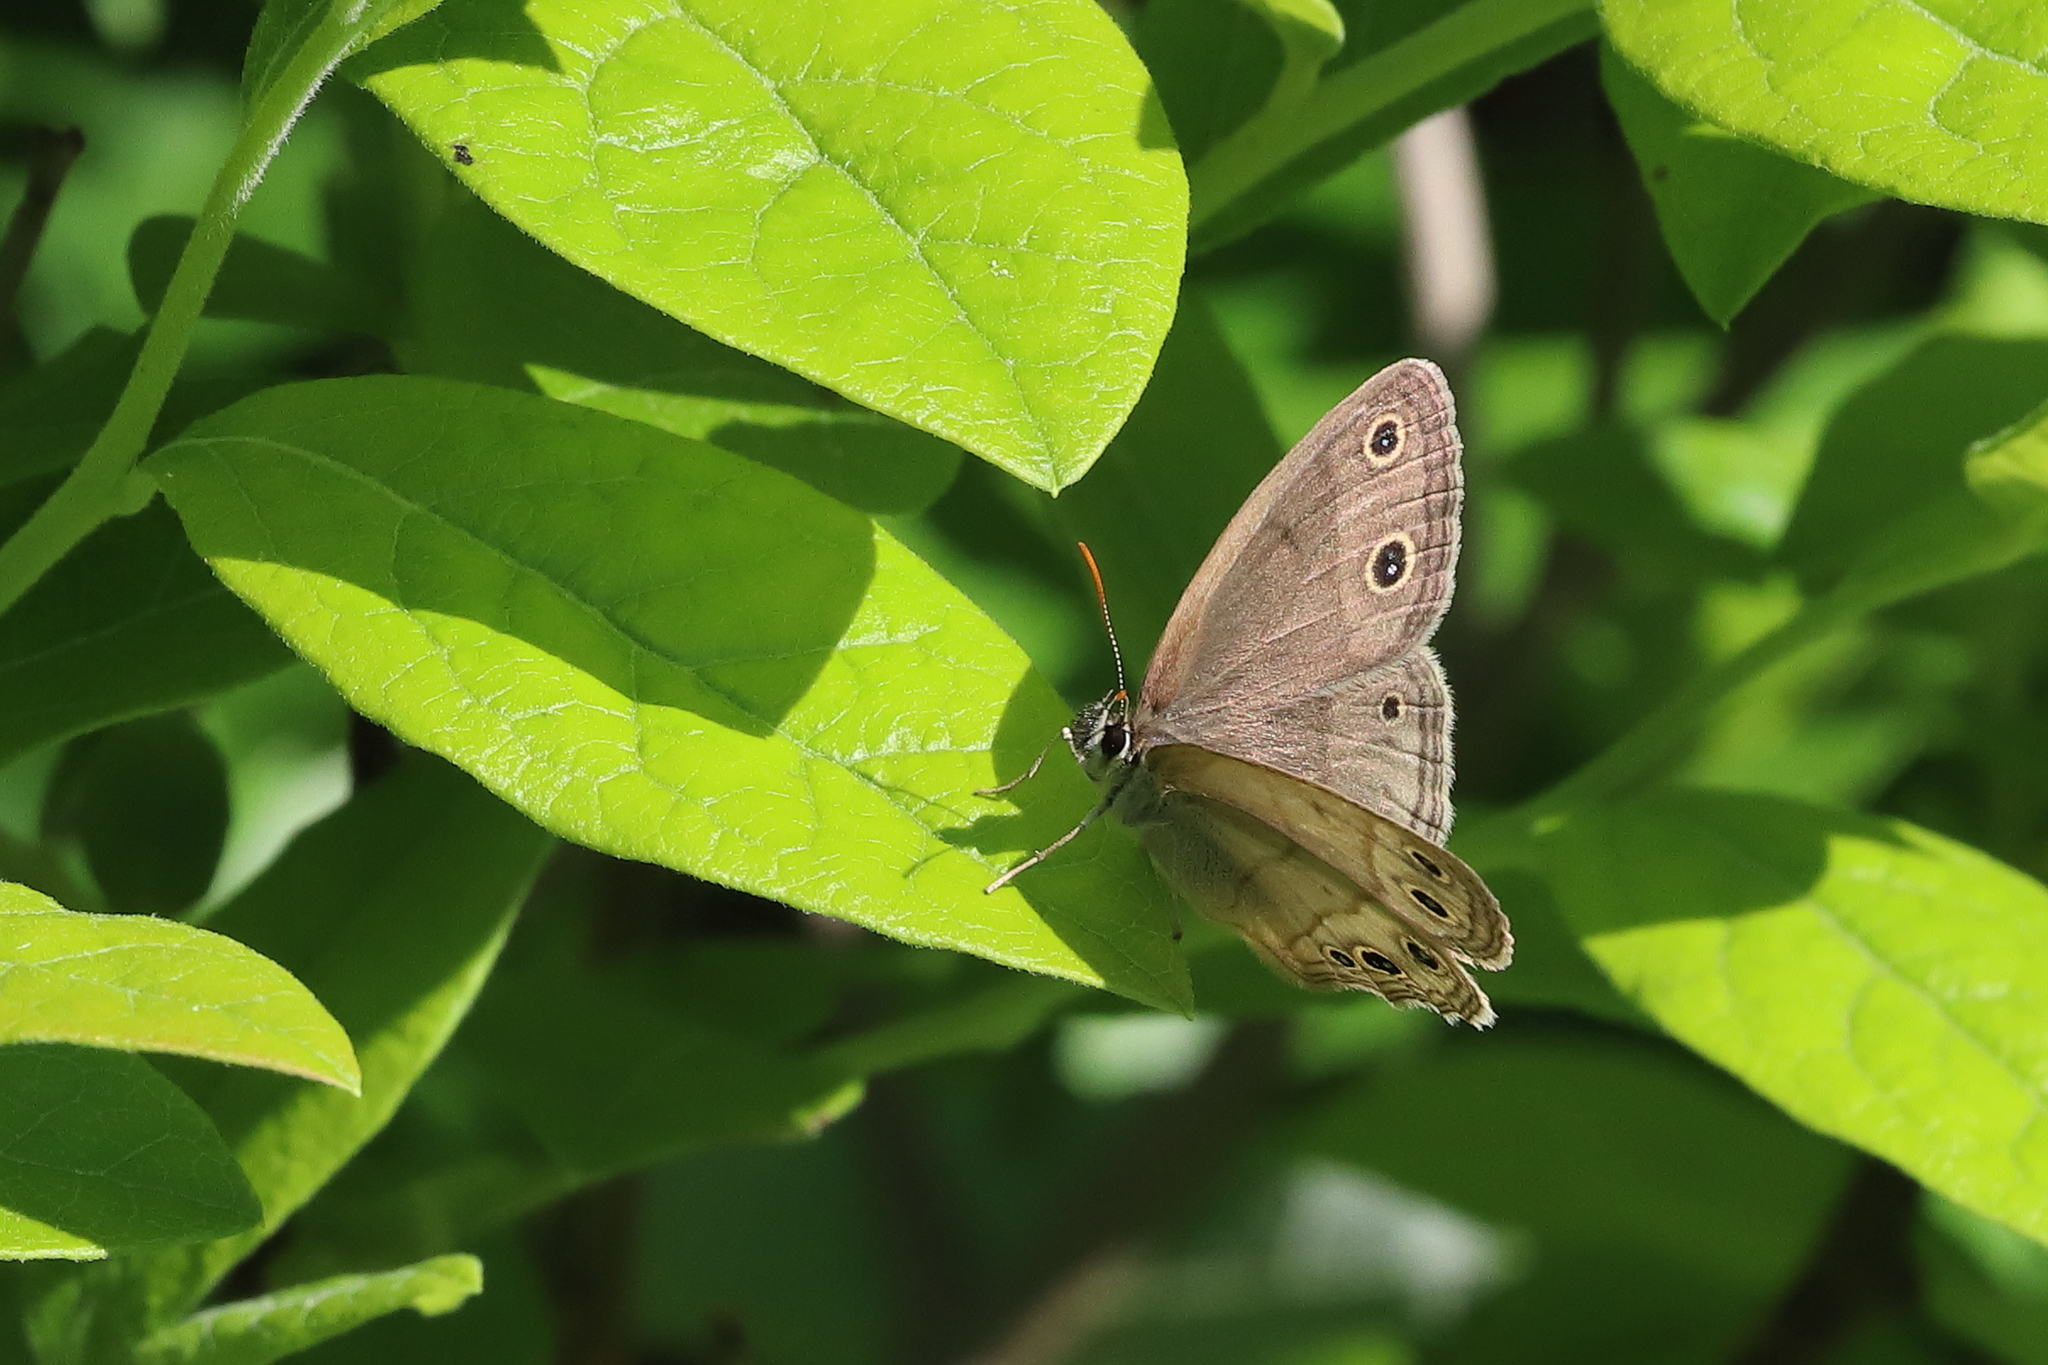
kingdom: Animalia
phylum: Arthropoda
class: Insecta
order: Lepidoptera
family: Nymphalidae
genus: Euptychia
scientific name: Euptychia cymela
